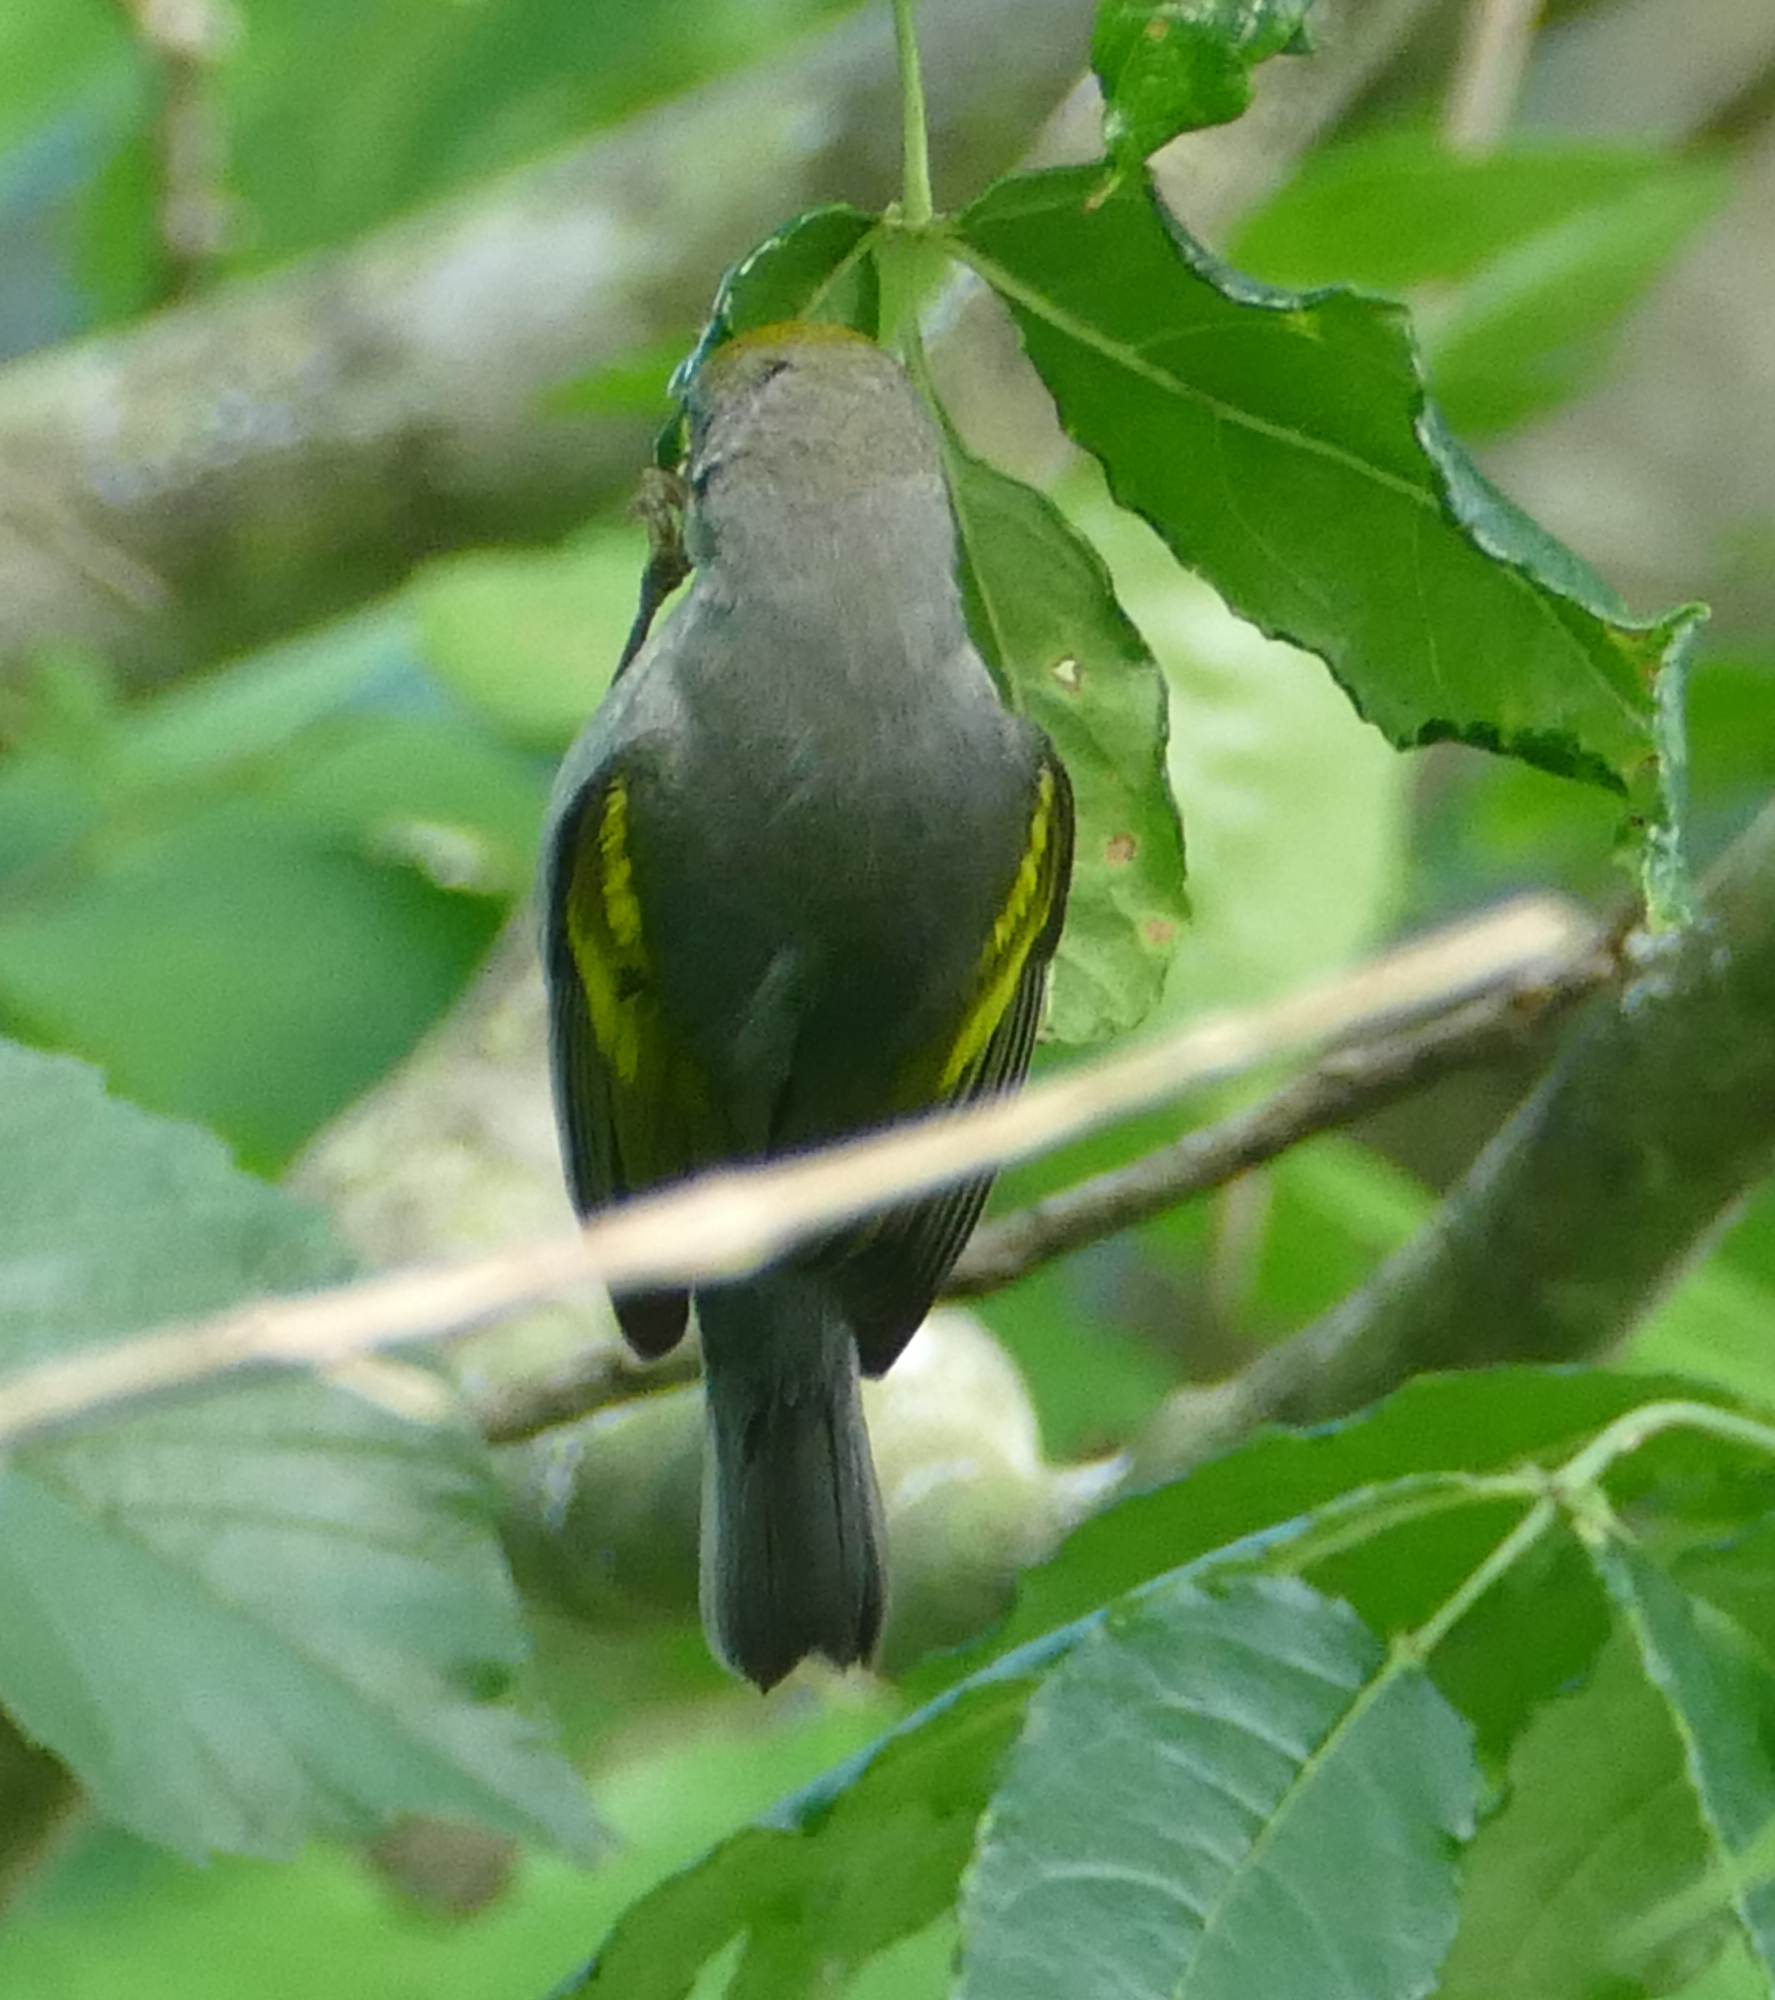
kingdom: Animalia
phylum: Chordata
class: Aves
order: Passeriformes
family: Parulidae
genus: Vermivora
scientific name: Vermivora chrysoptera
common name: Golden-winged warbler
